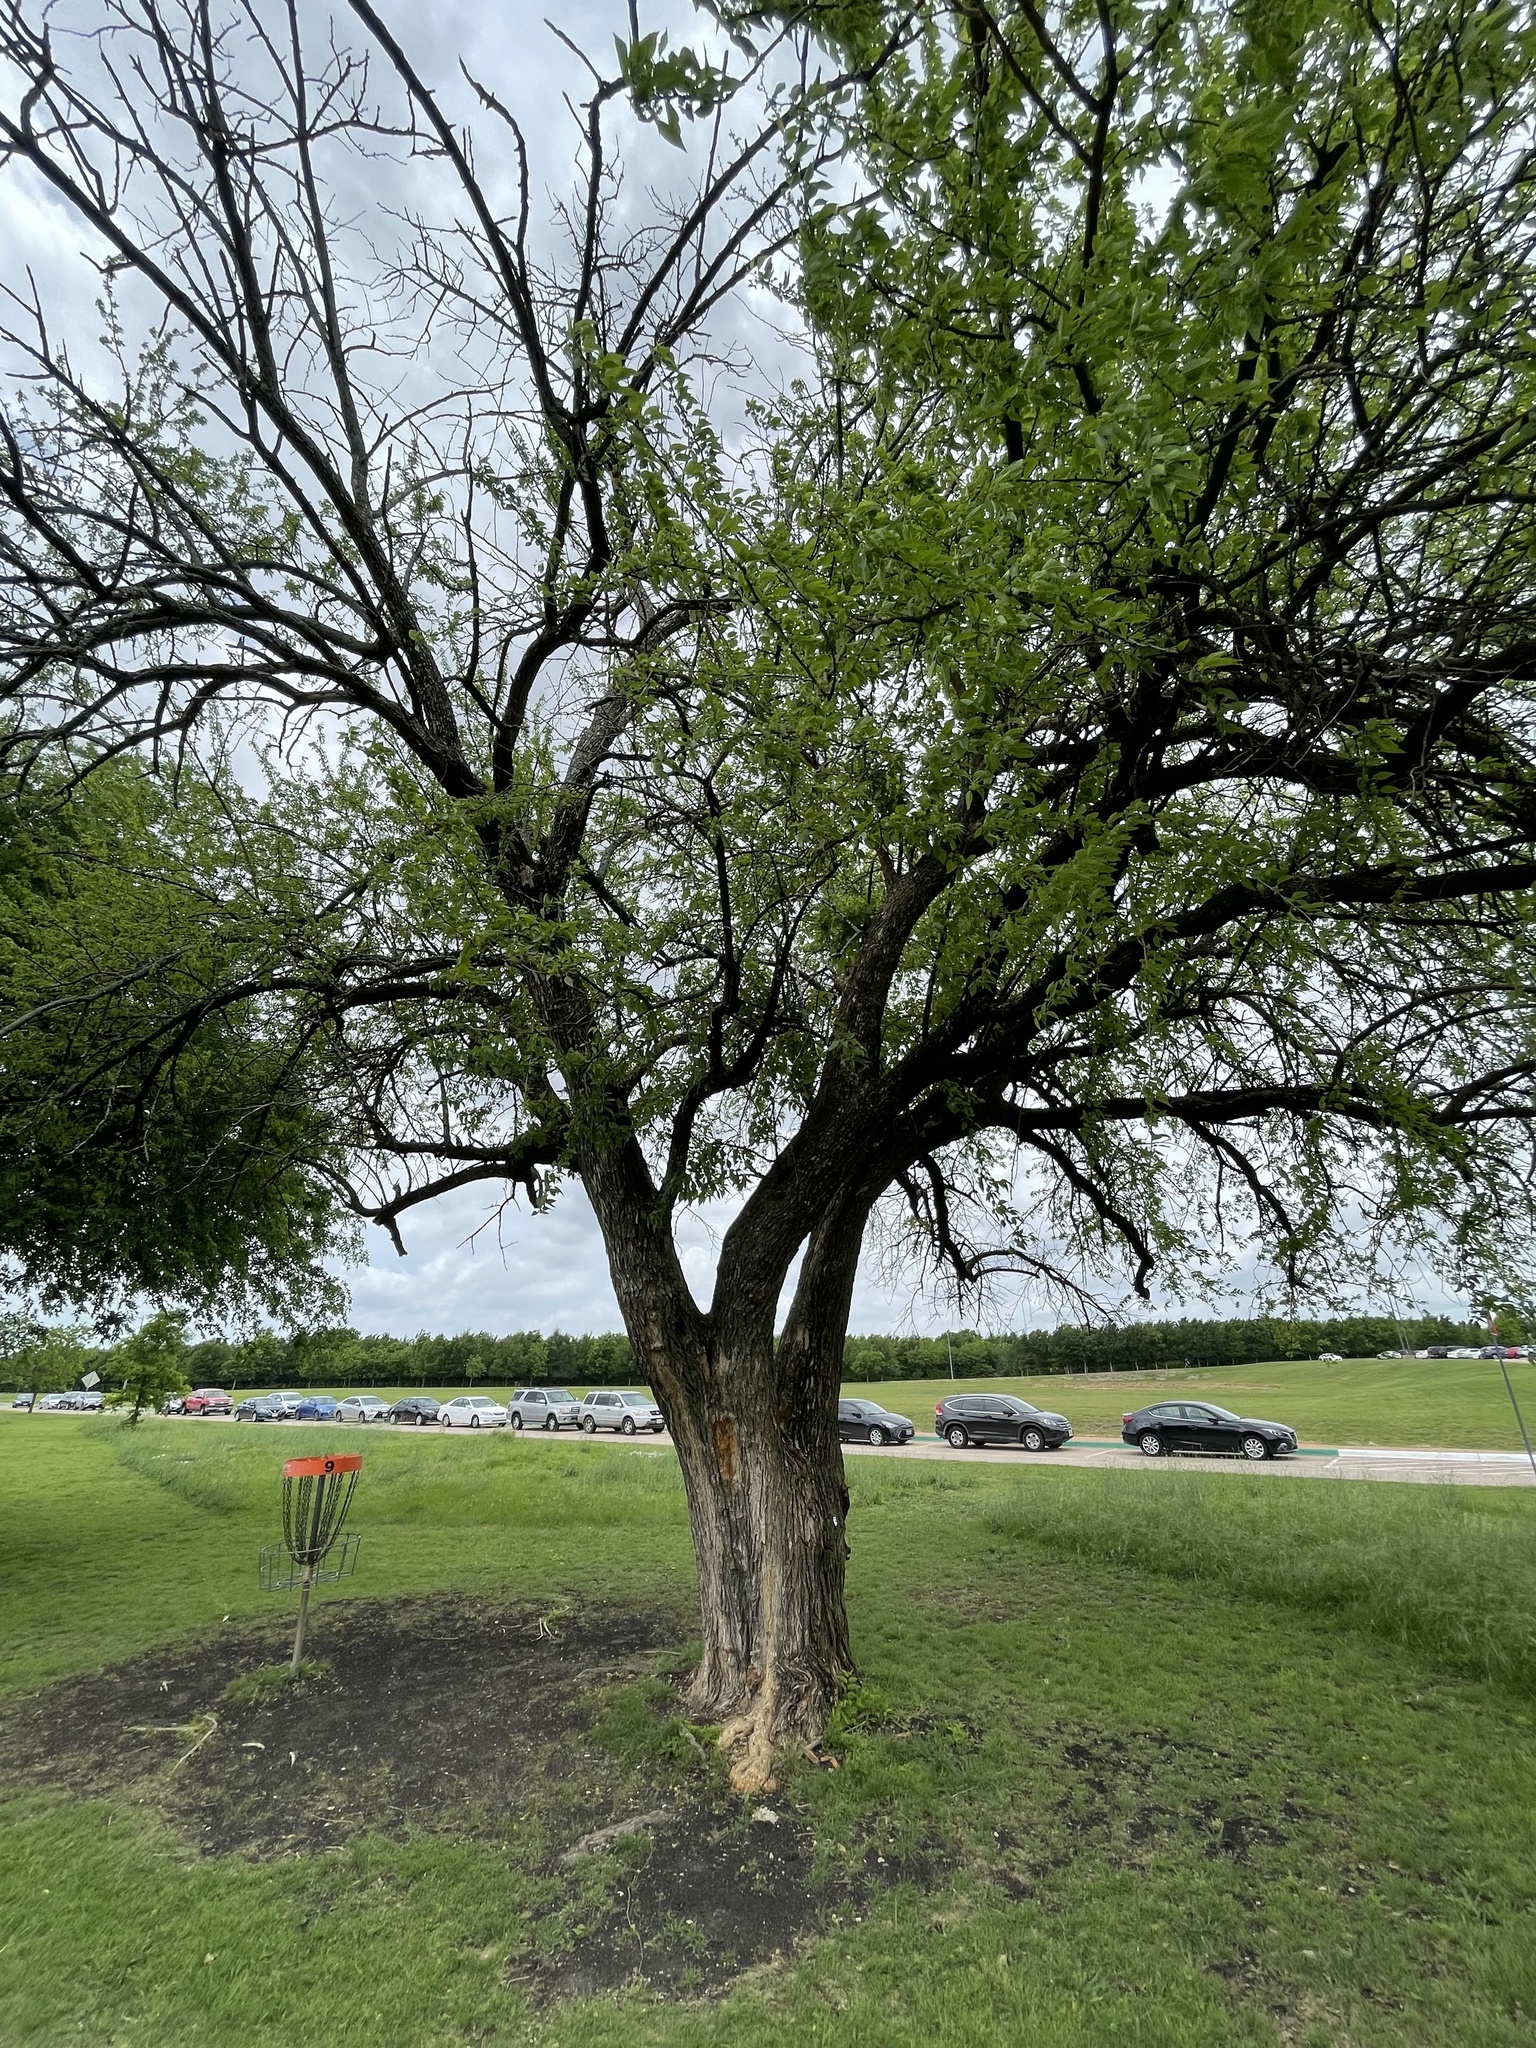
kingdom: Plantae
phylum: Tracheophyta
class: Magnoliopsida
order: Rosales
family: Moraceae
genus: Maclura
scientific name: Maclura pomifera
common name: Osage-orange
